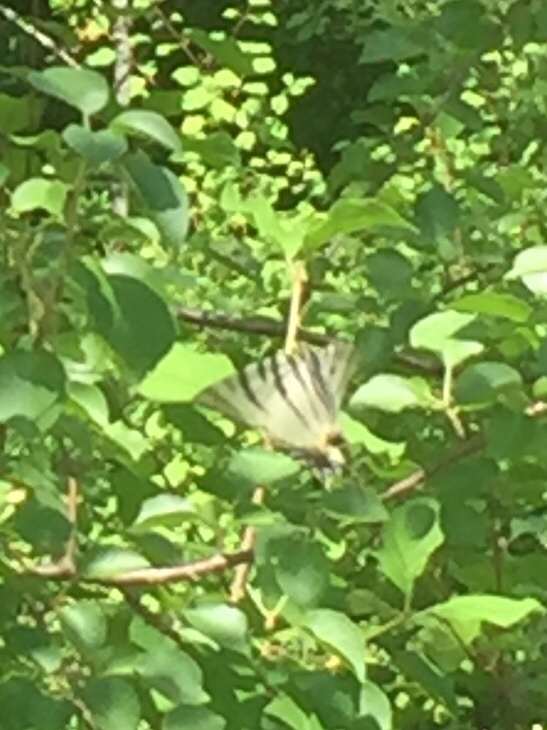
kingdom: Animalia
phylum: Arthropoda
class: Insecta
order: Lepidoptera
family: Papilionidae
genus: Iphiclides
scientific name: Iphiclides podalirius
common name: Scarce swallowtail
